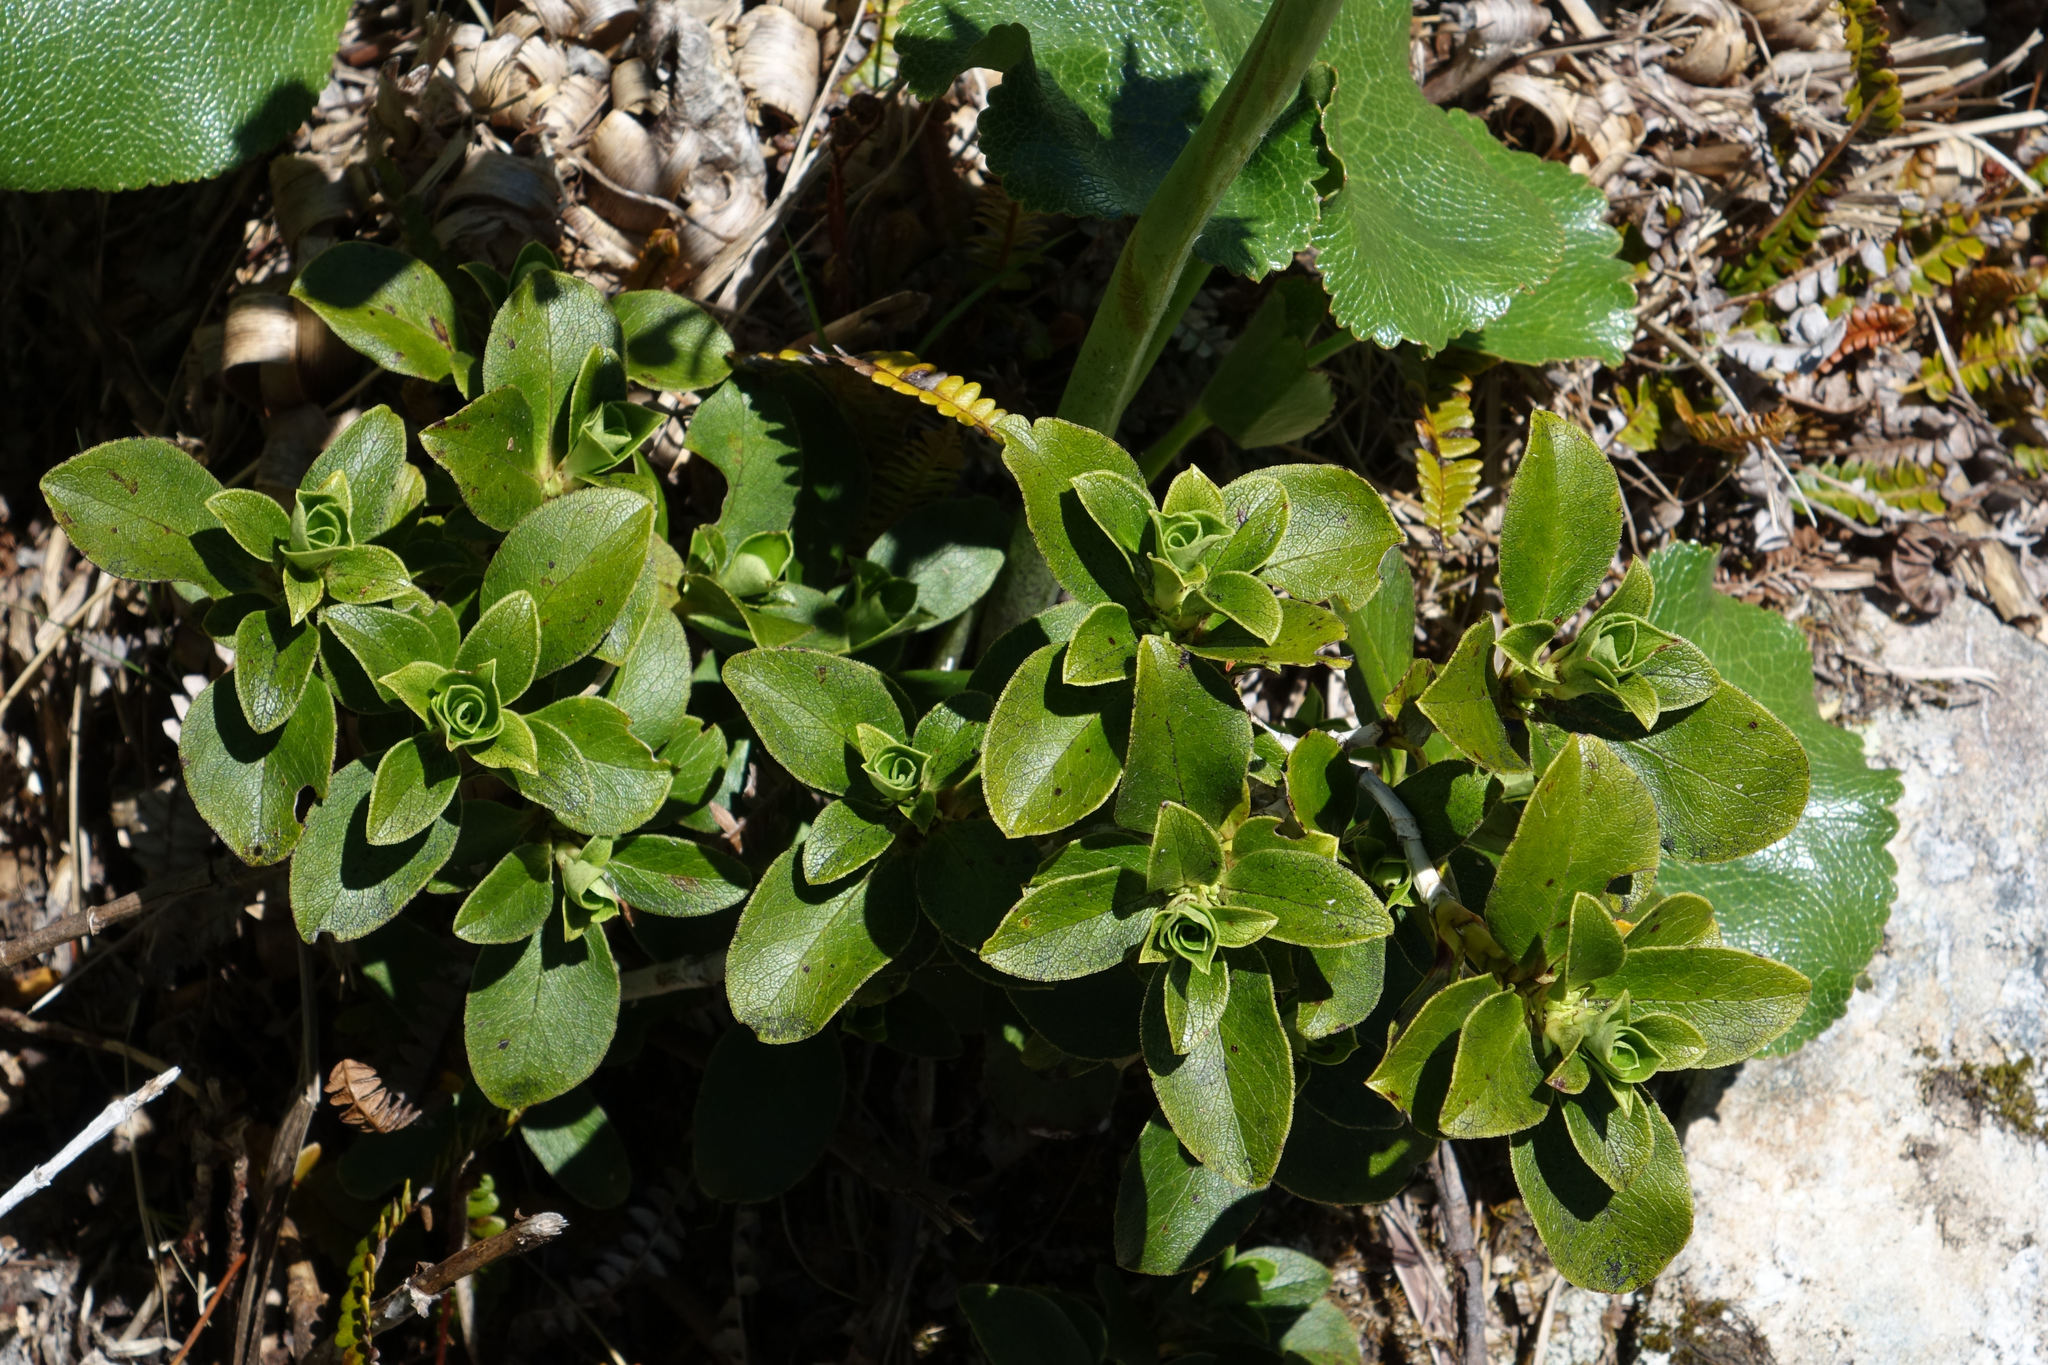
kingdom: Plantae
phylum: Tracheophyta
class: Magnoliopsida
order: Gentianales
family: Rubiaceae
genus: Coprosma
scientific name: Coprosma serrulata
